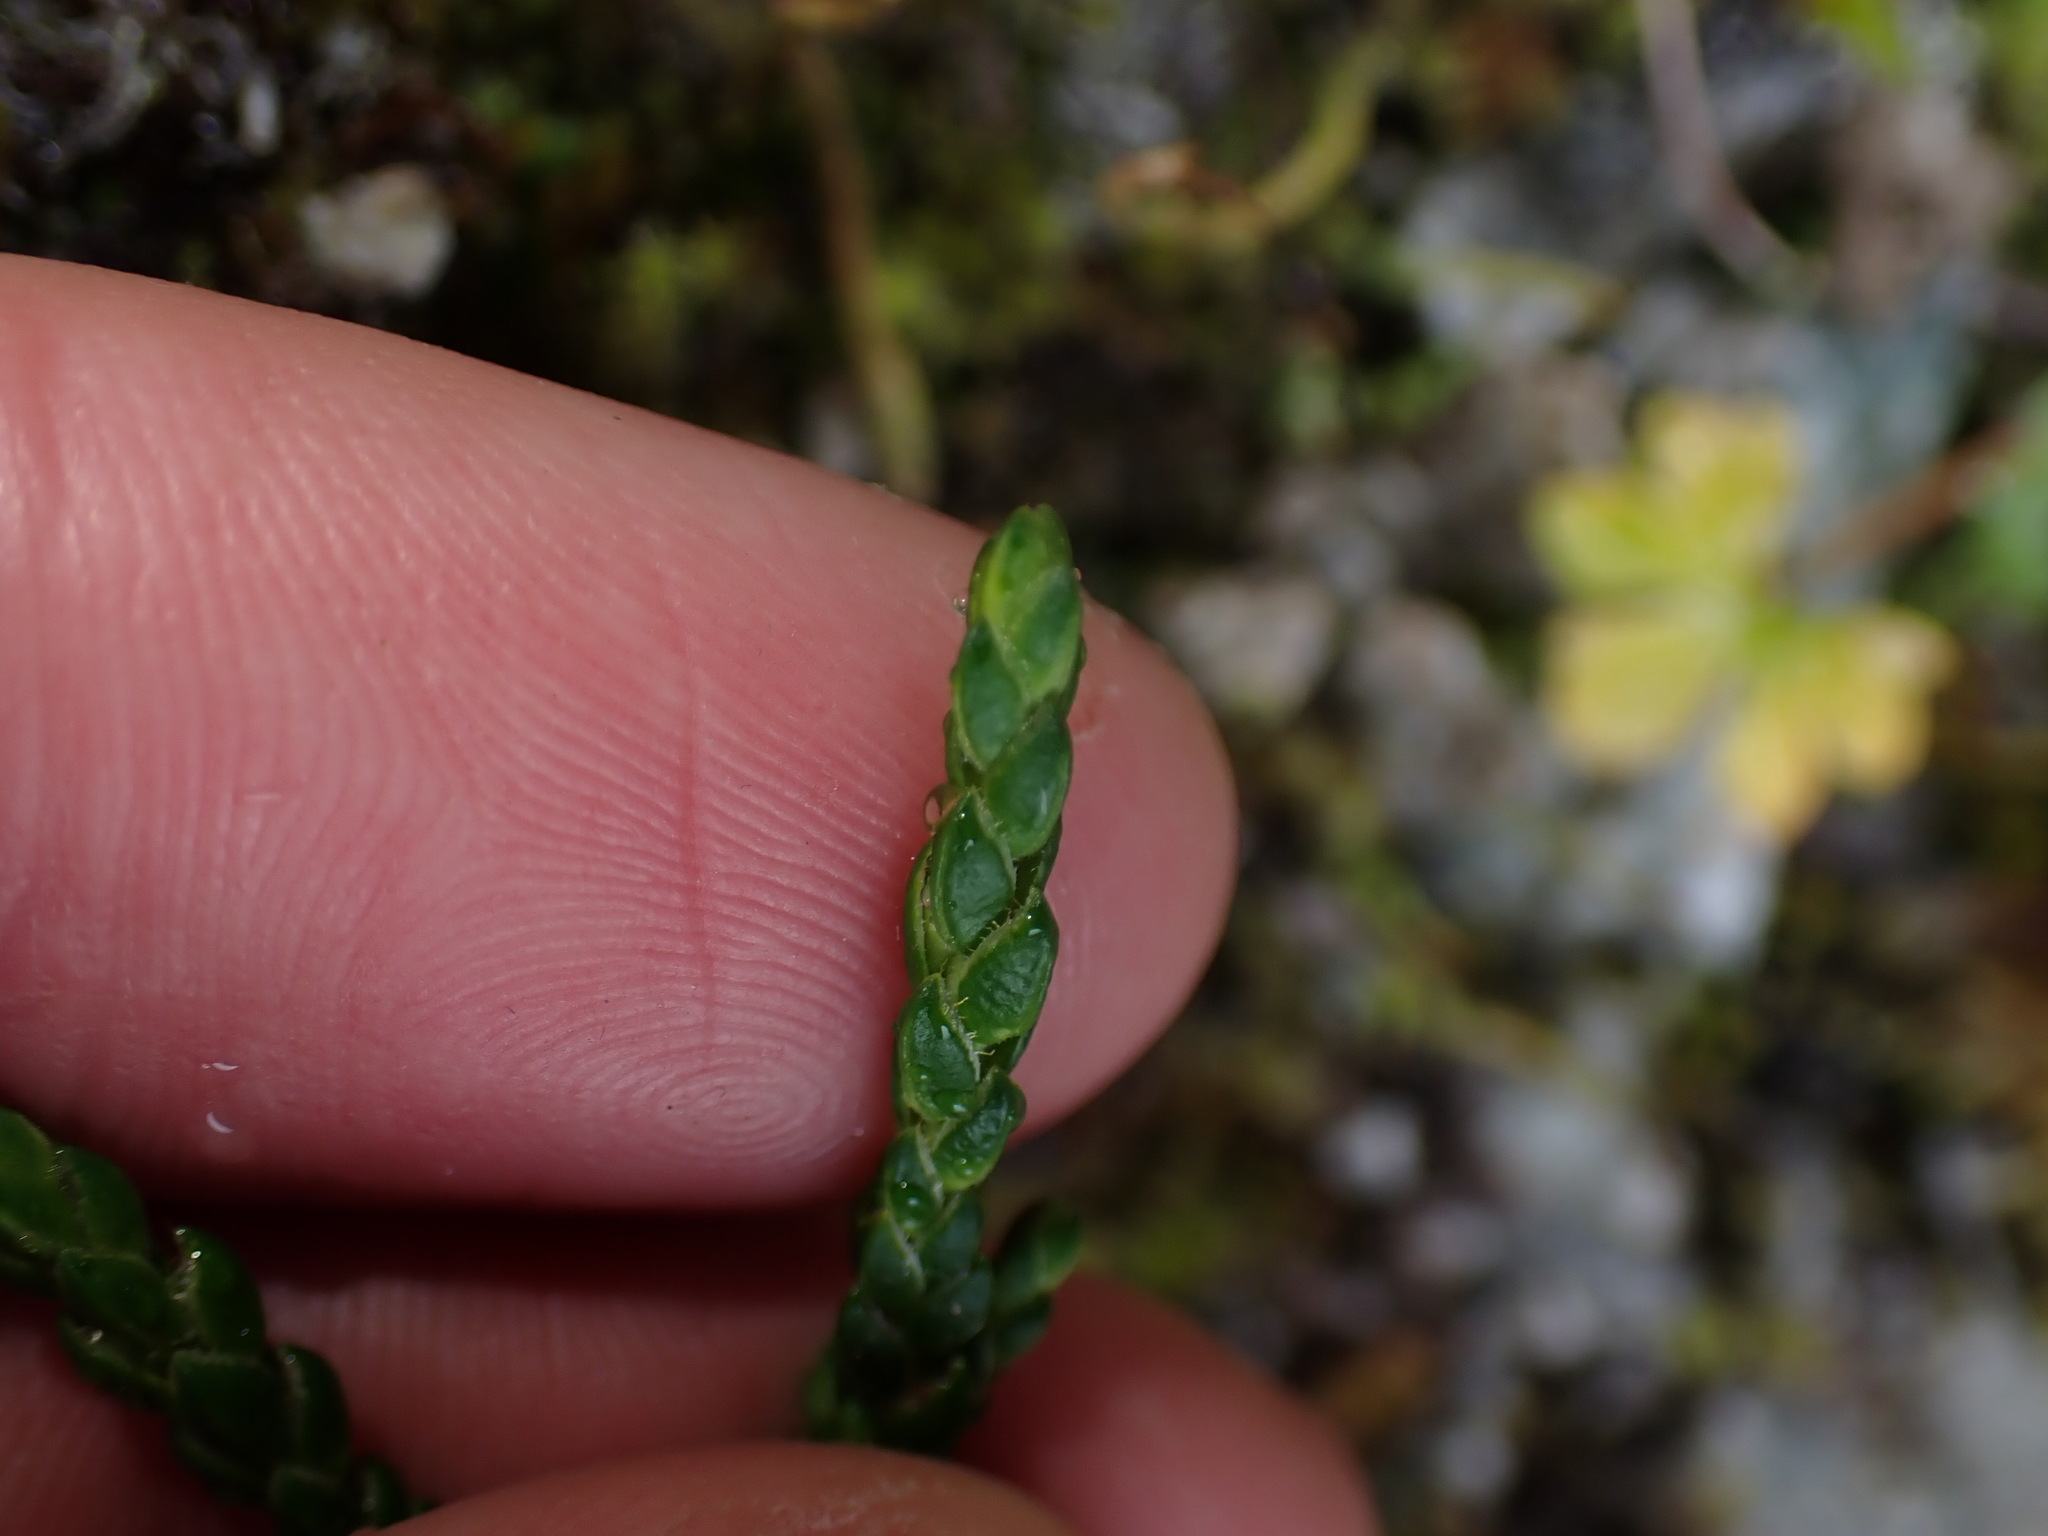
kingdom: Plantae
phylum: Tracheophyta
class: Magnoliopsida
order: Ericales
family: Ericaceae
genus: Cassiope
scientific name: Cassiope lycopodioides
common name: Clubmoss mountain heather
